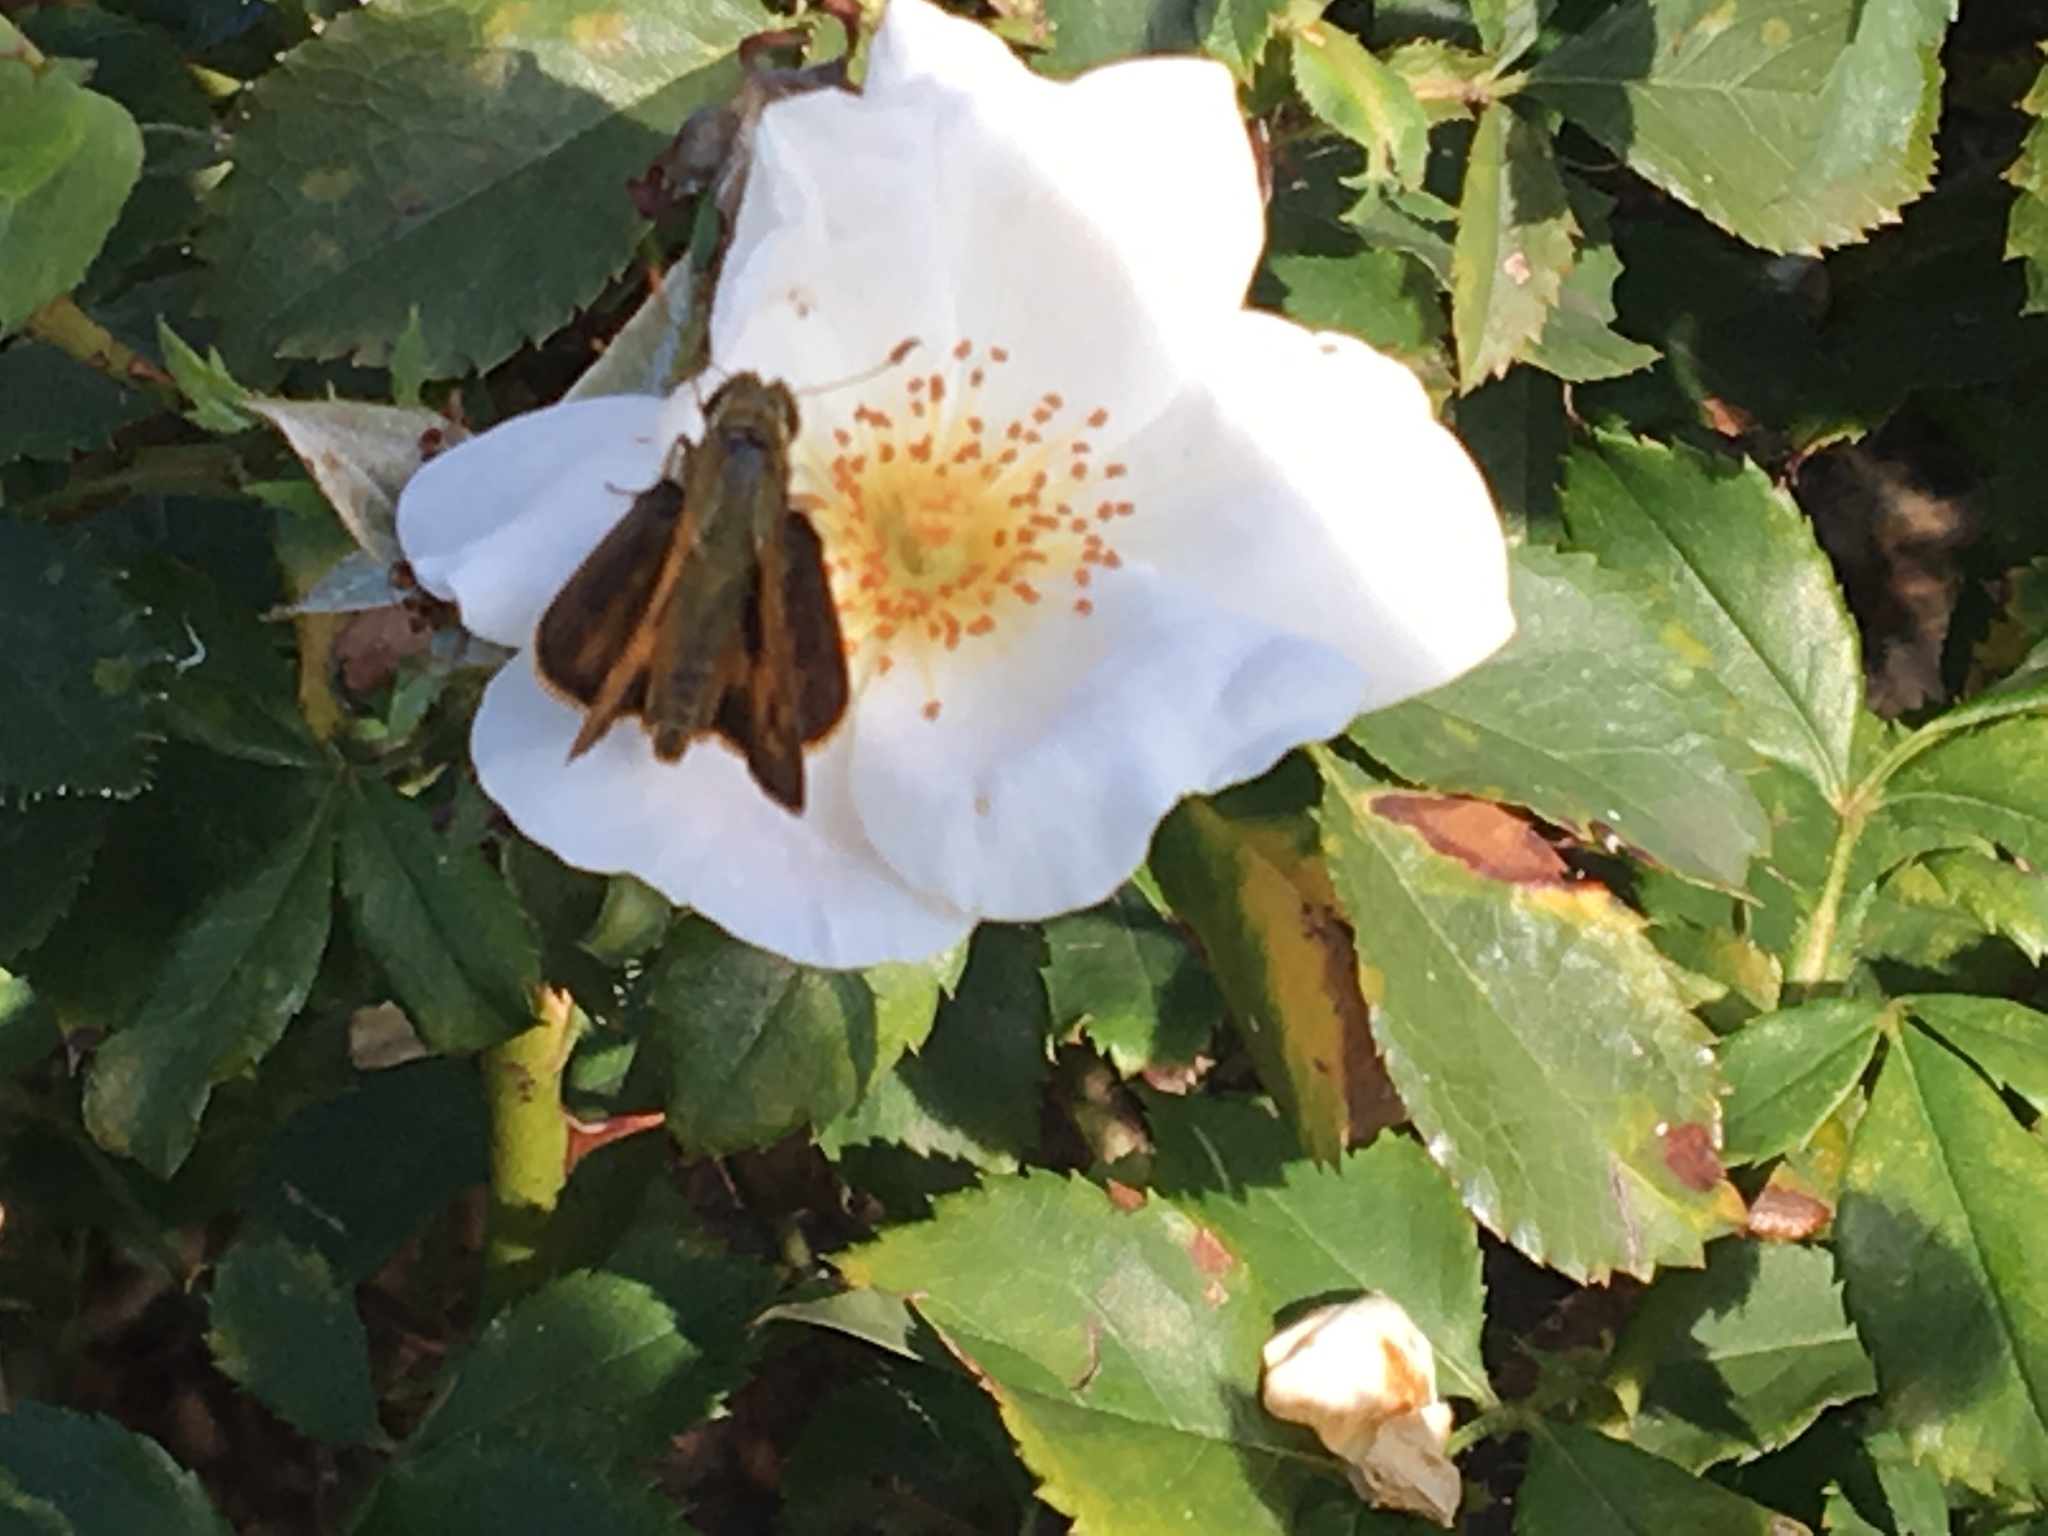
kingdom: Animalia
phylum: Arthropoda
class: Insecta
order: Lepidoptera
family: Hesperiidae
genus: Atalopedes
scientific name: Atalopedes
